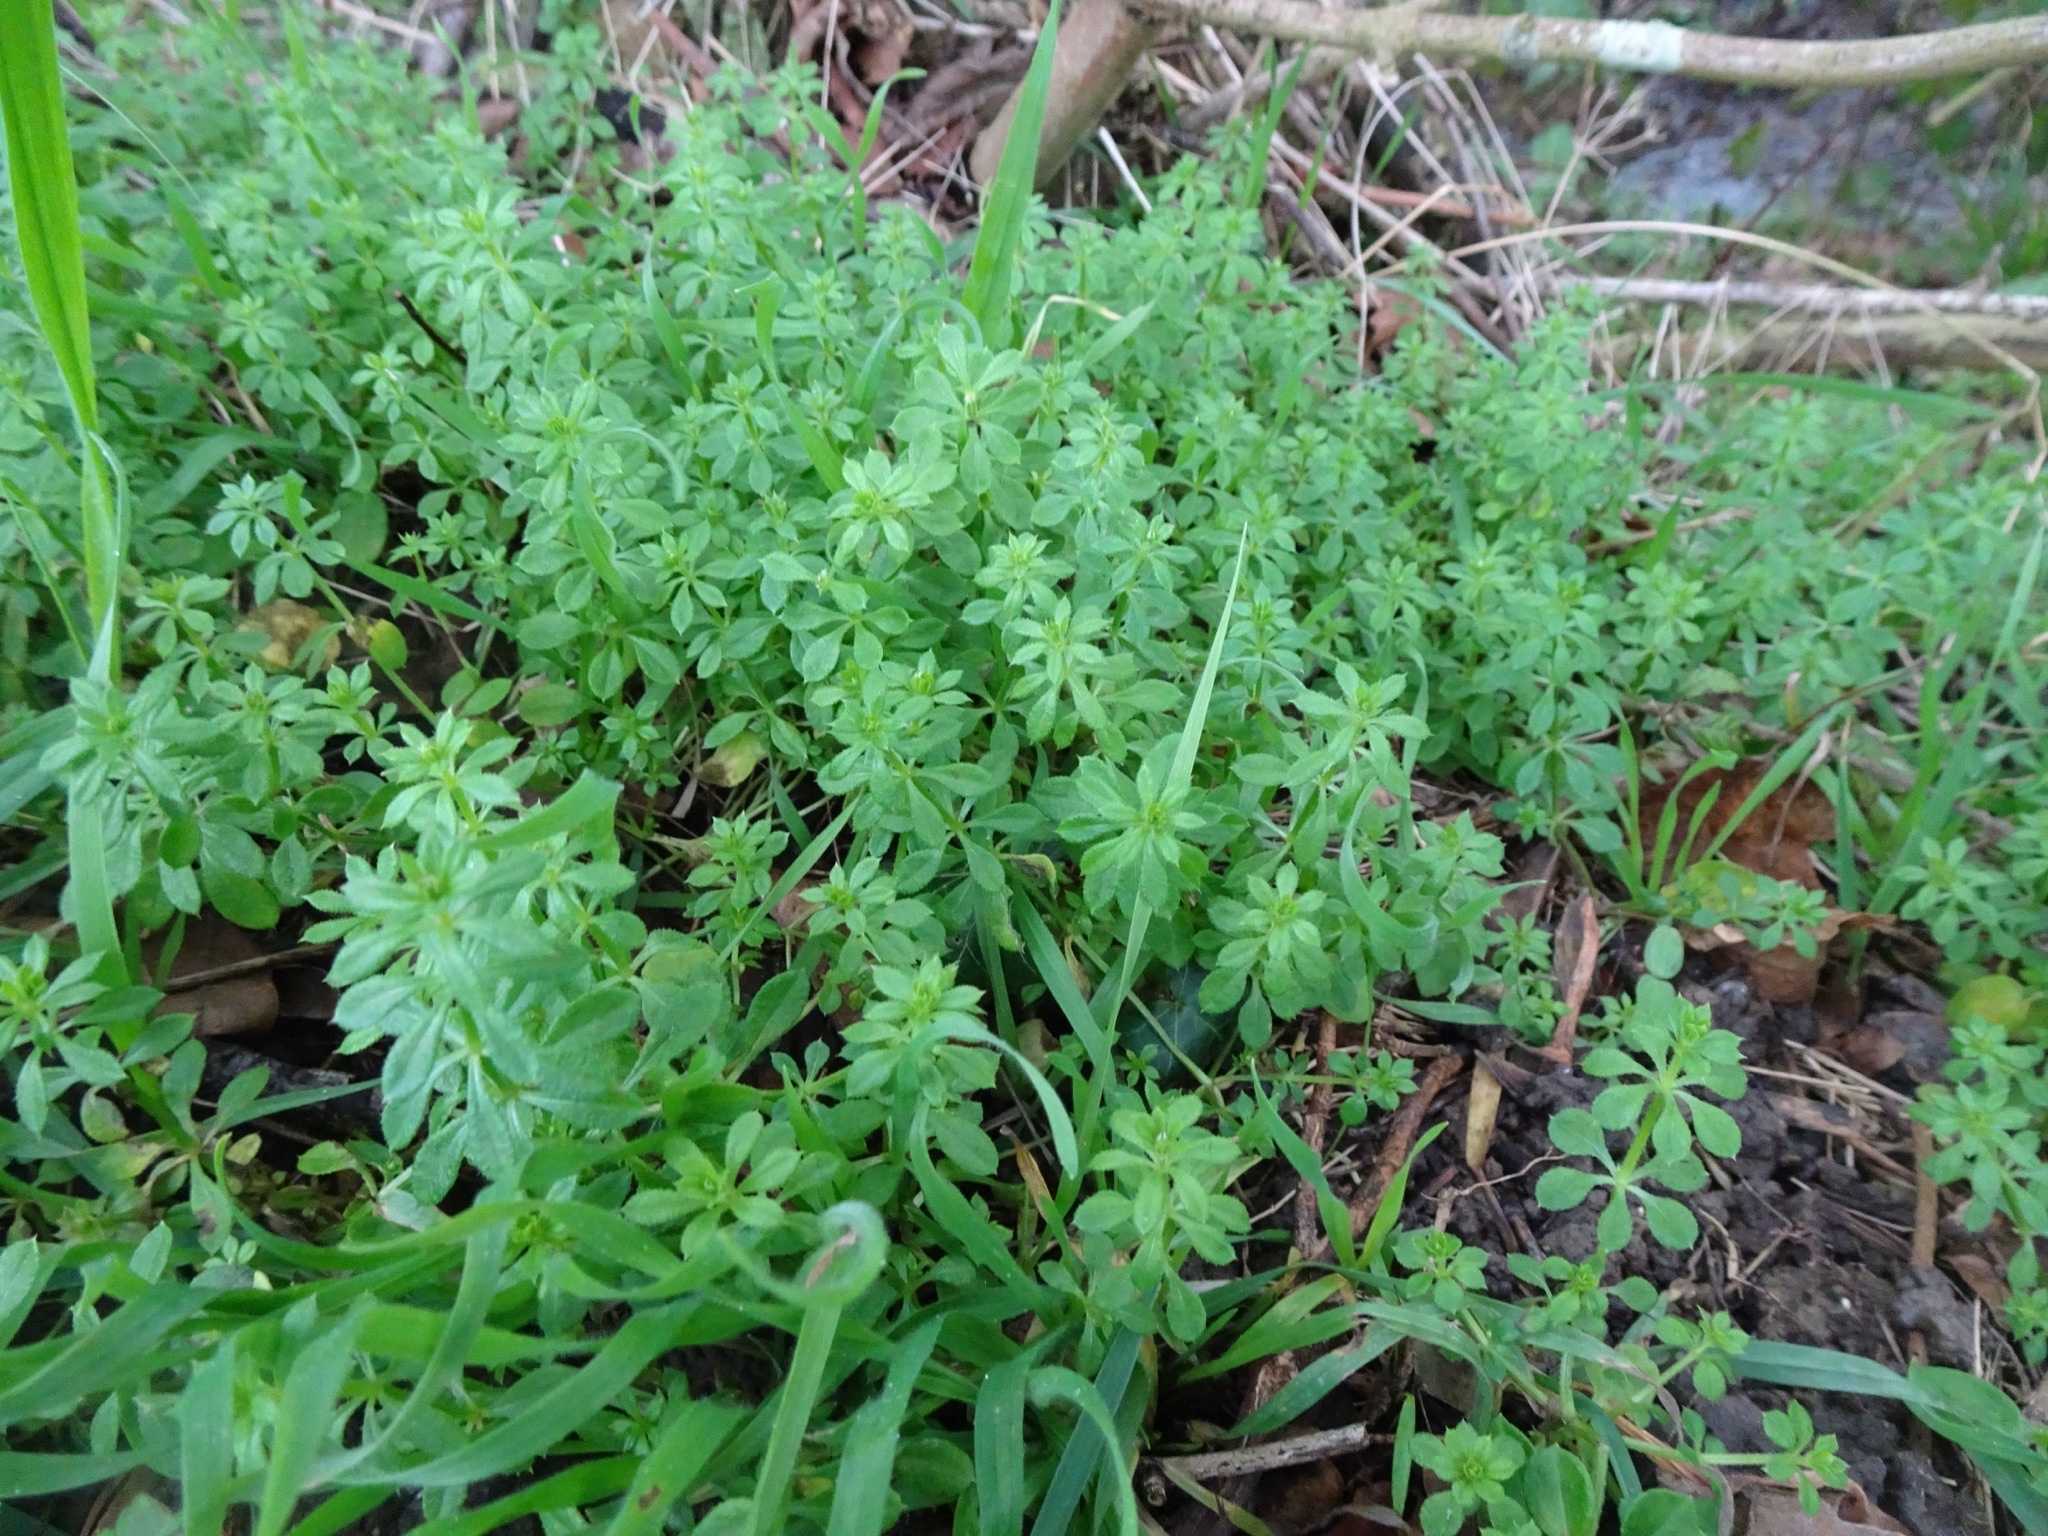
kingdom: Plantae
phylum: Tracheophyta
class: Magnoliopsida
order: Gentianales
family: Rubiaceae
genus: Galium
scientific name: Galium aparine
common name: Cleavers
